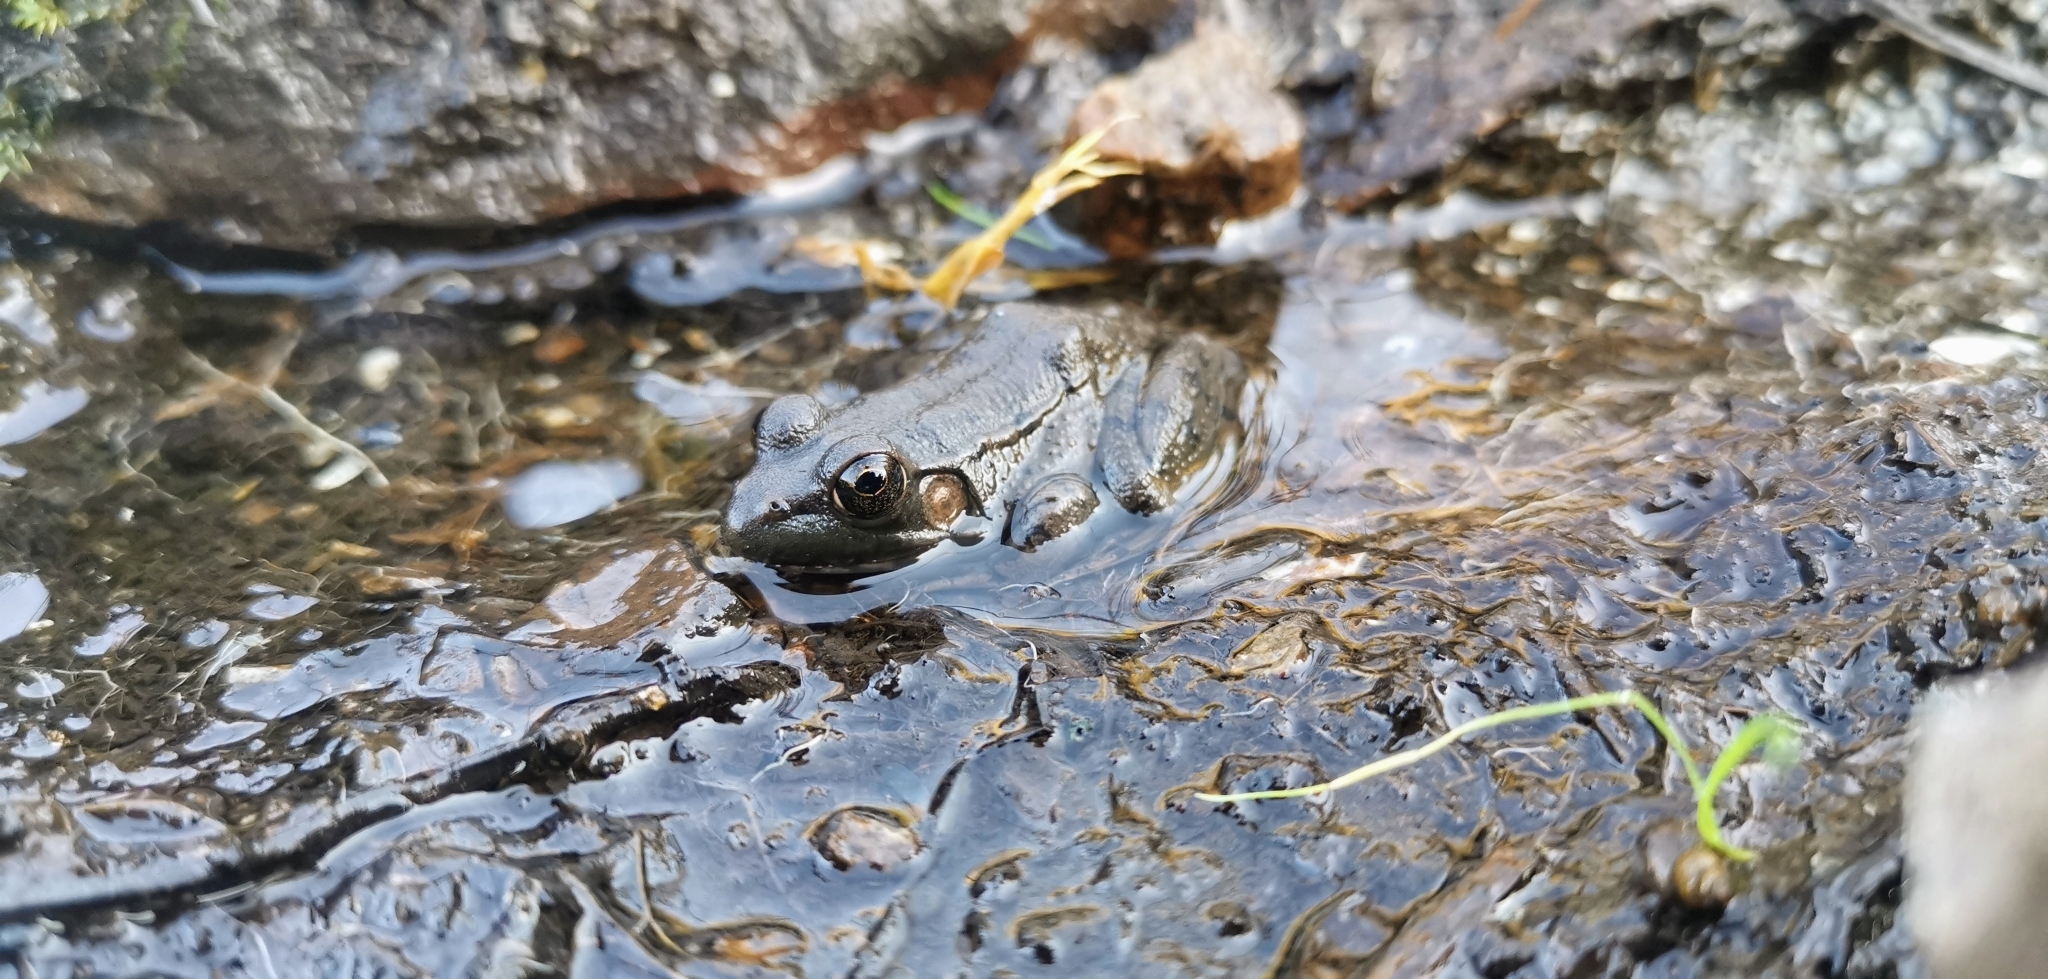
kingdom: Animalia
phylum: Chordata
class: Amphibia
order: Anura
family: Ranidae
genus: Lithobates
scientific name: Lithobates clamitans
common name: Green frog
